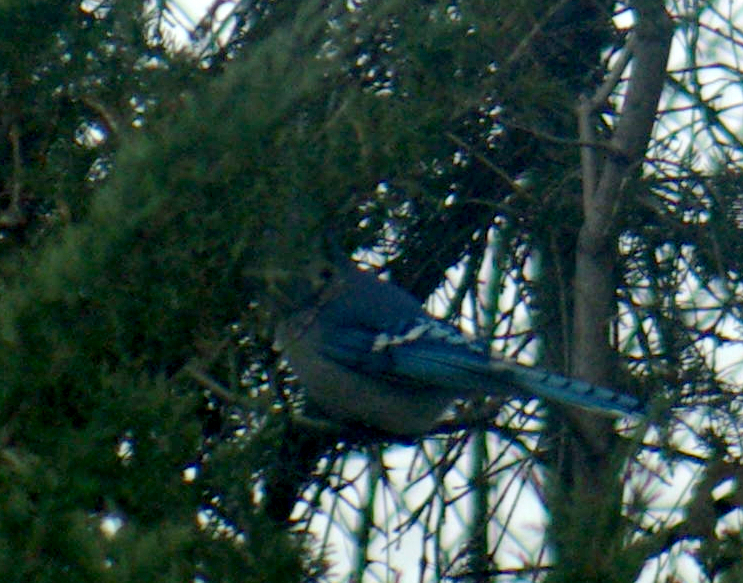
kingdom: Animalia
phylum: Chordata
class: Aves
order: Passeriformes
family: Corvidae
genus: Cyanocitta
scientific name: Cyanocitta cristata
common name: Blue jay
